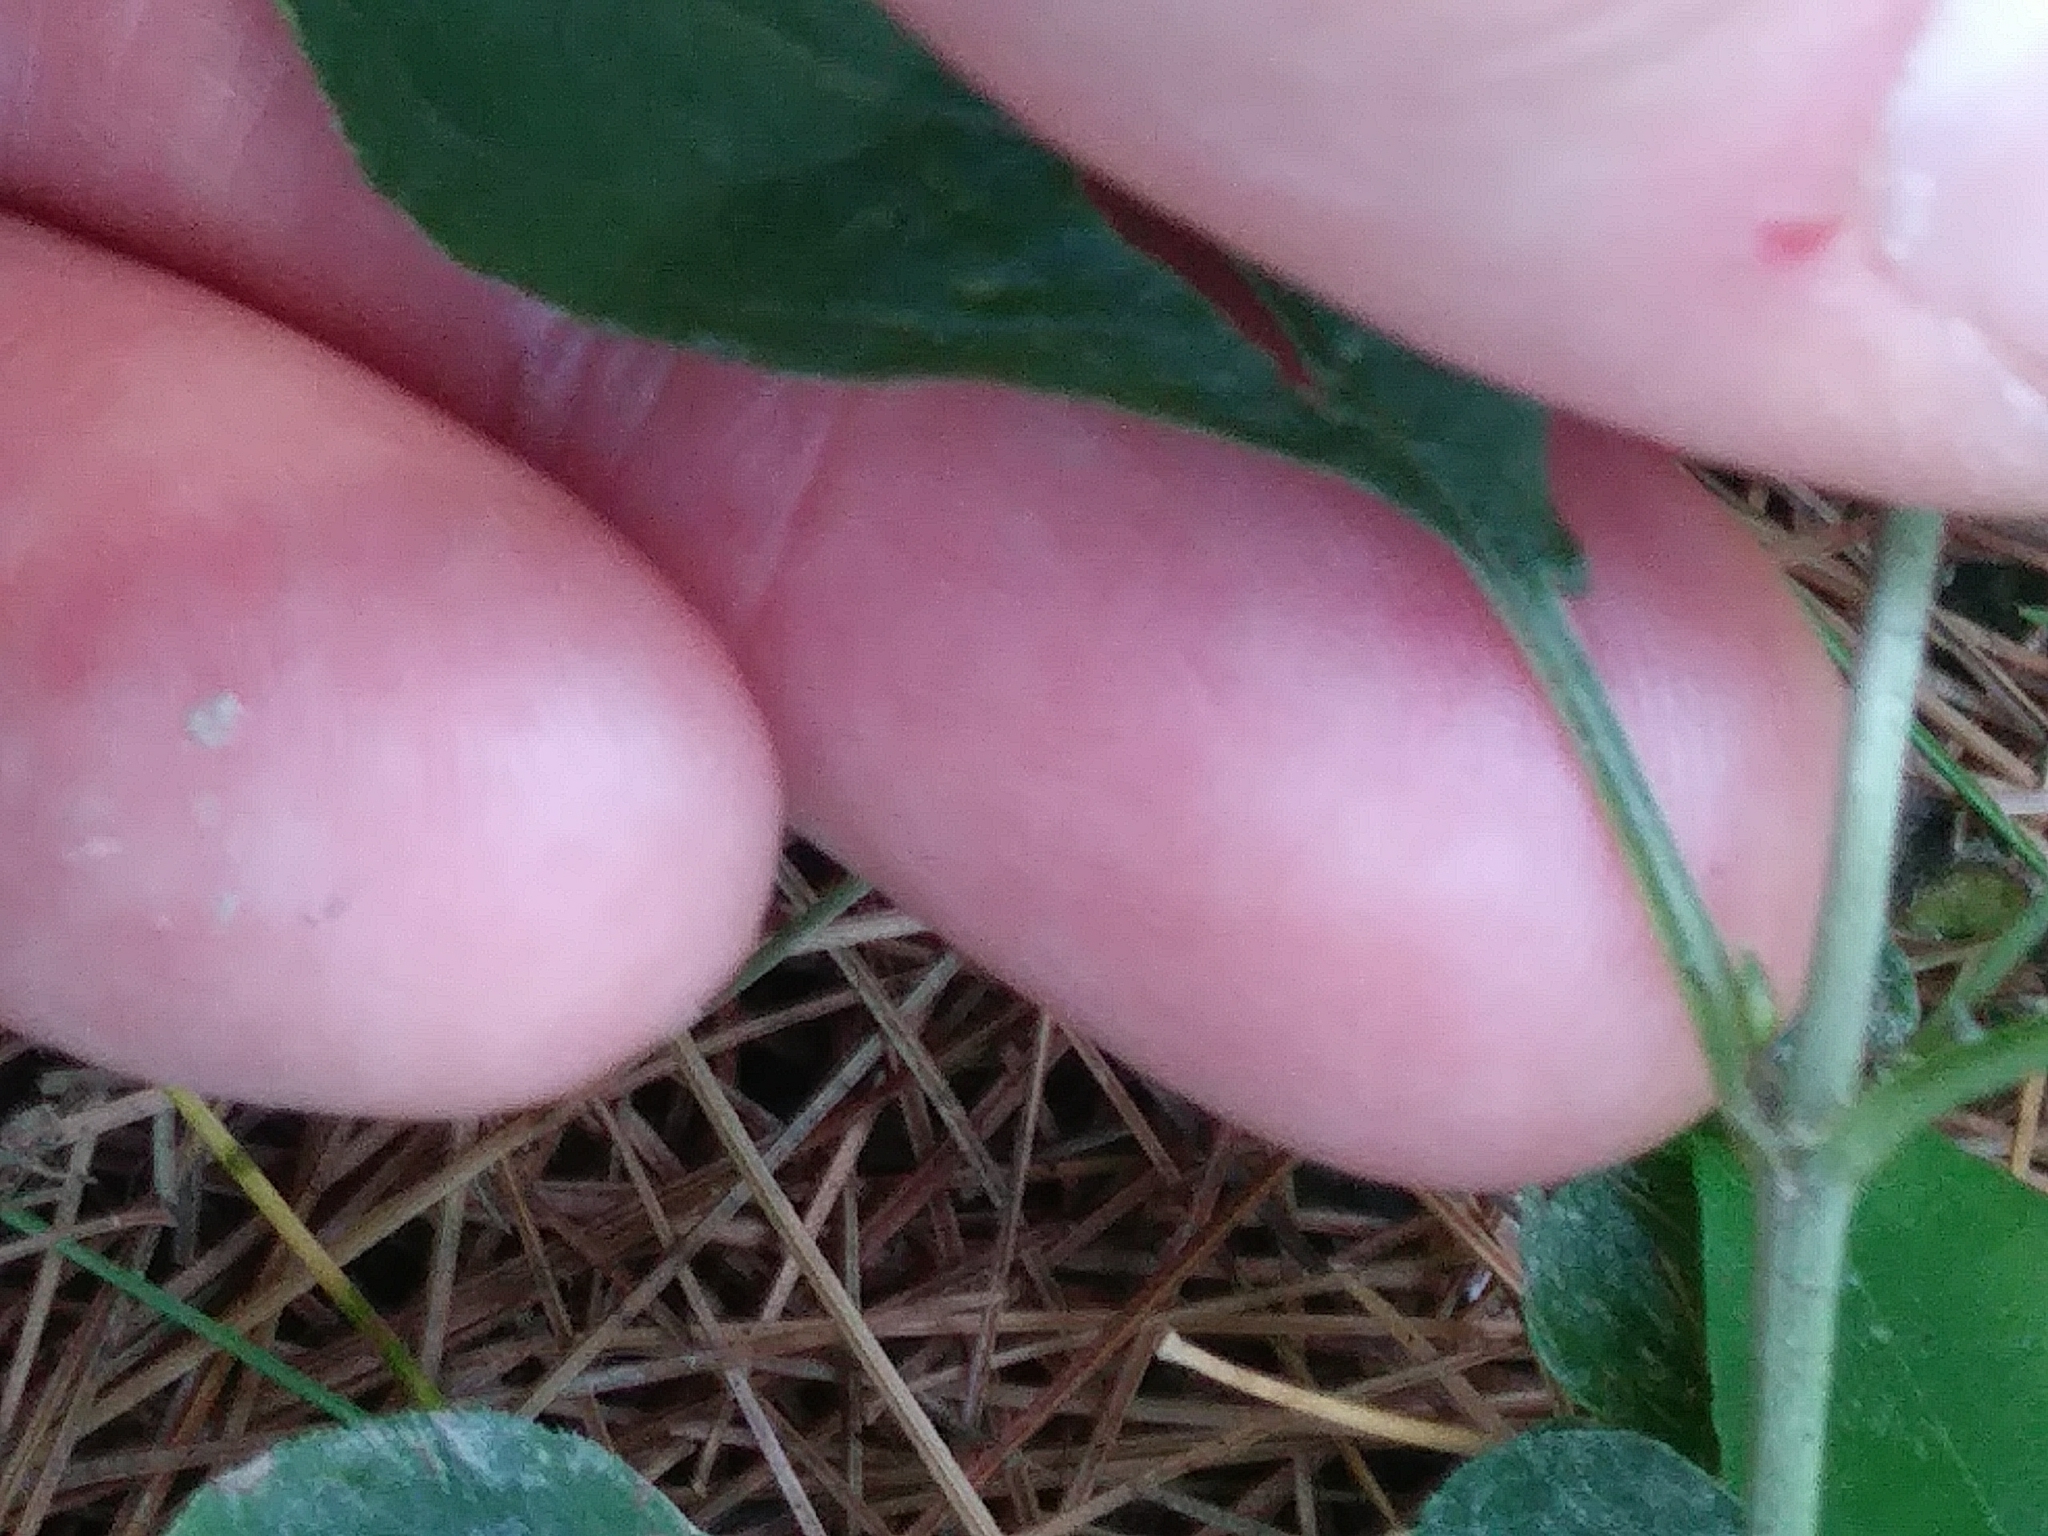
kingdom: Plantae
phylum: Tracheophyta
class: Magnoliopsida
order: Ericales
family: Primulaceae
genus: Lysimachia
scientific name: Lysimachia ciliata
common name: Fringed loosestrife
